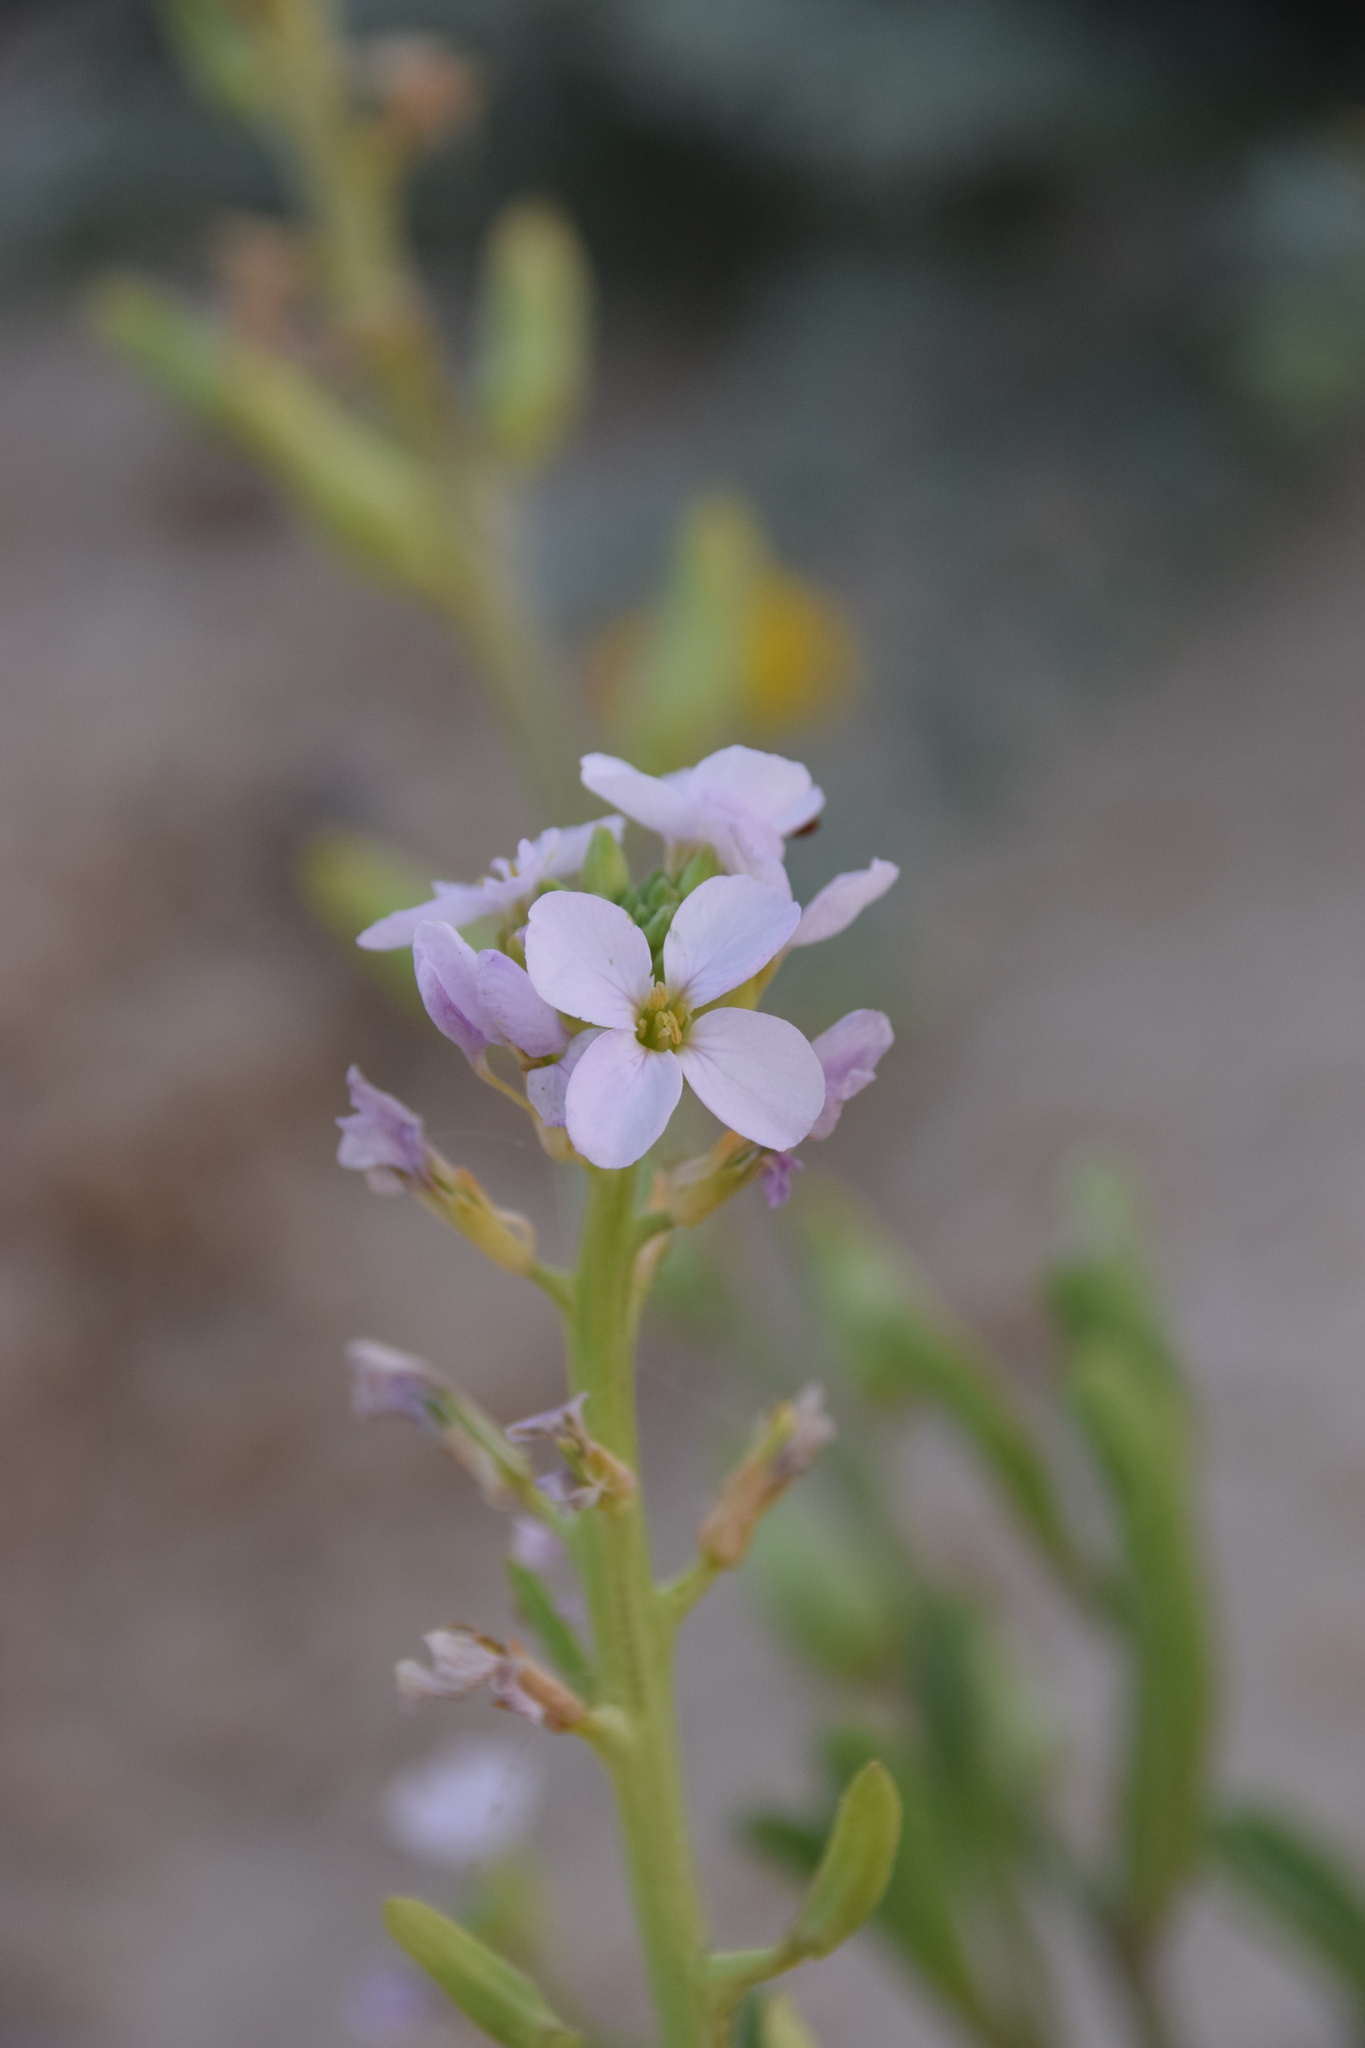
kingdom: Plantae
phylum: Tracheophyta
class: Magnoliopsida
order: Brassicales
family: Brassicaceae
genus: Cakile
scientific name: Cakile maritima
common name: Sea rocket
